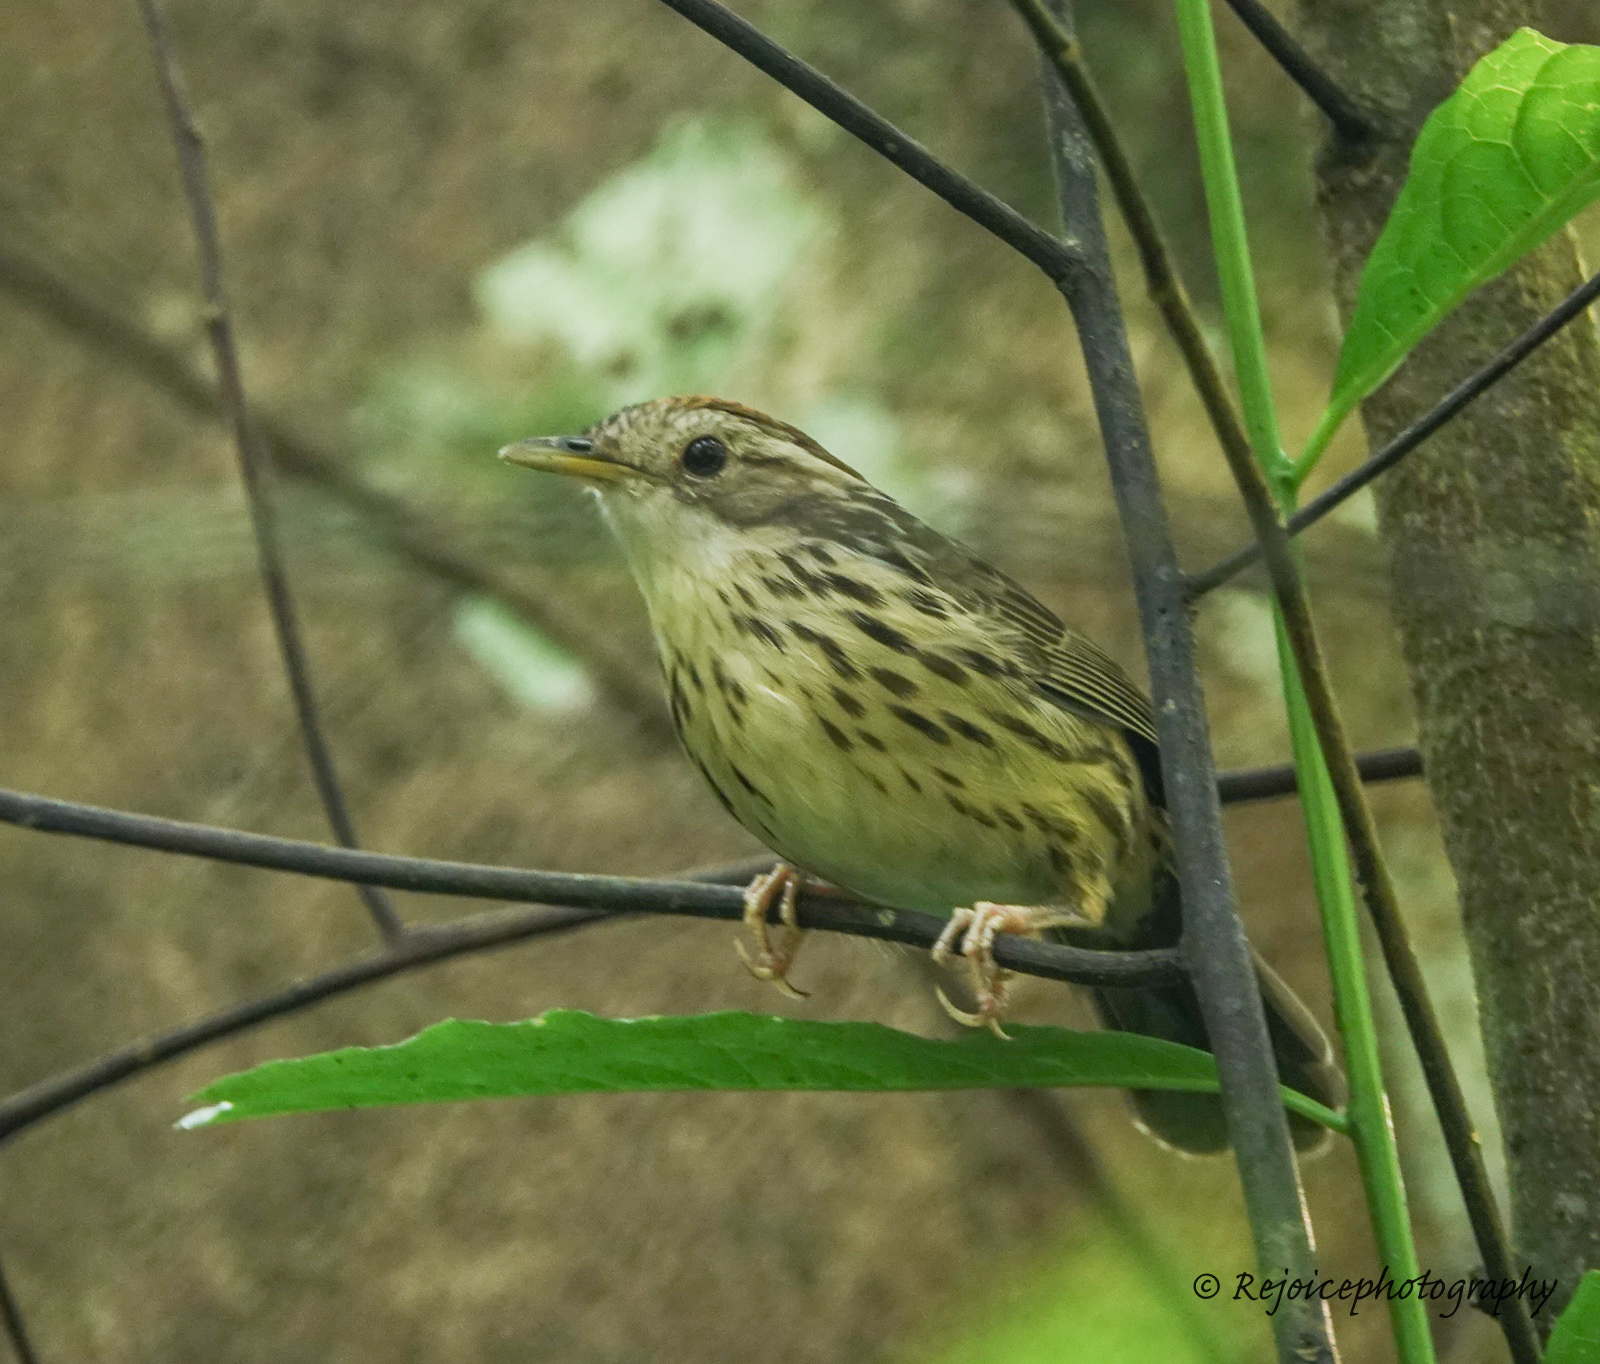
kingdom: Animalia
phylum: Chordata
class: Aves
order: Passeriformes
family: Pellorneidae
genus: Pellorneum
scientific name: Pellorneum ruficeps
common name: Puff-throated babbler
